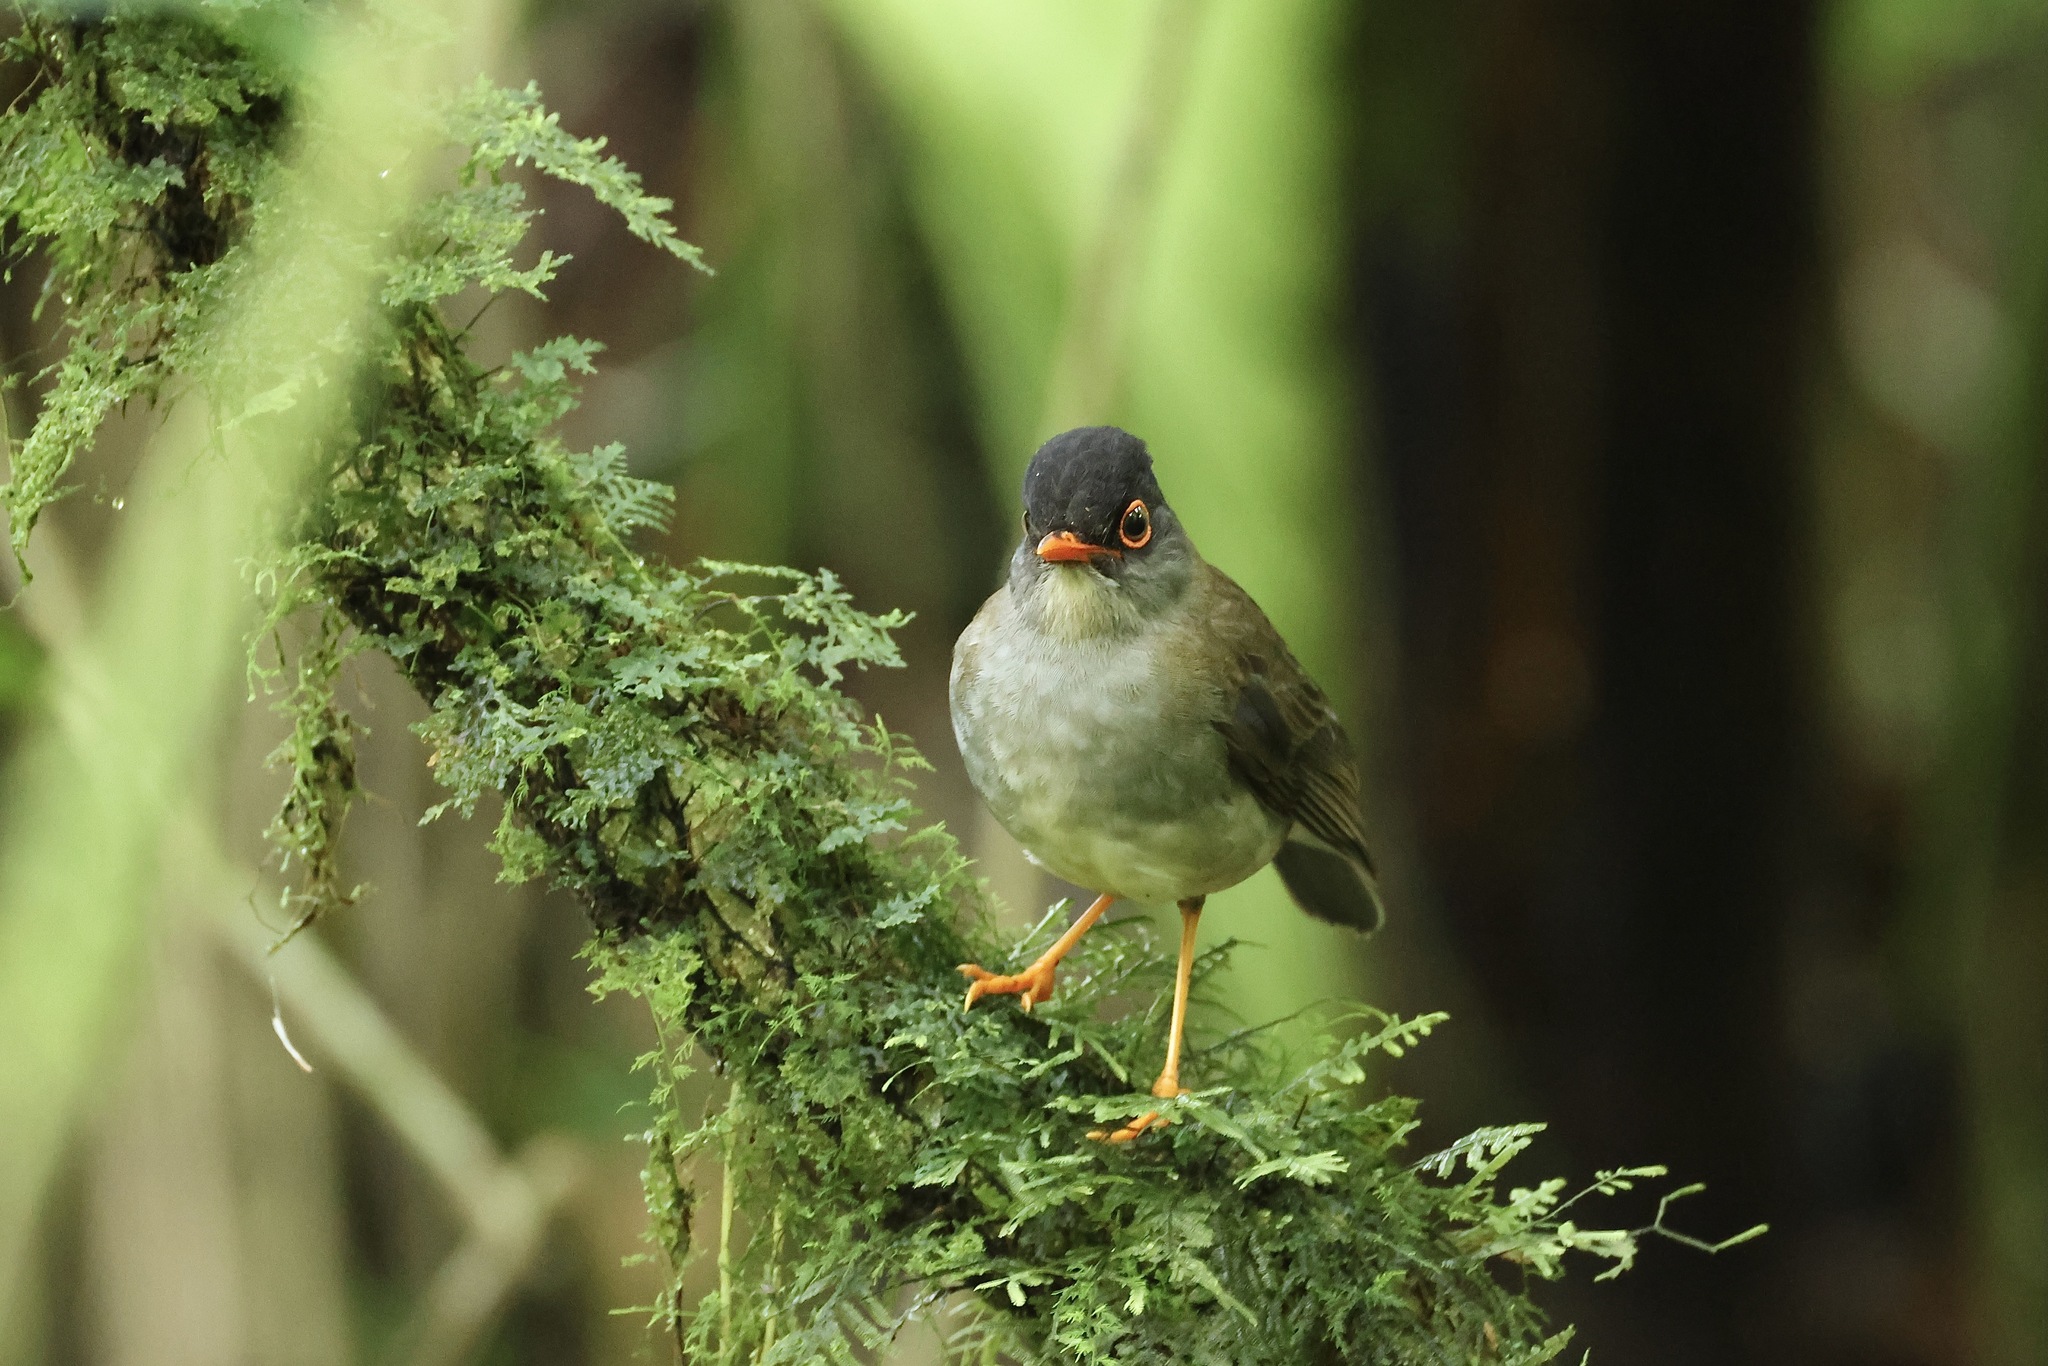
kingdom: Animalia
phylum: Chordata
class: Aves
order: Passeriformes
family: Turdidae
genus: Catharus
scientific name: Catharus mexicanus
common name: Black-headed nightingale-thrush
